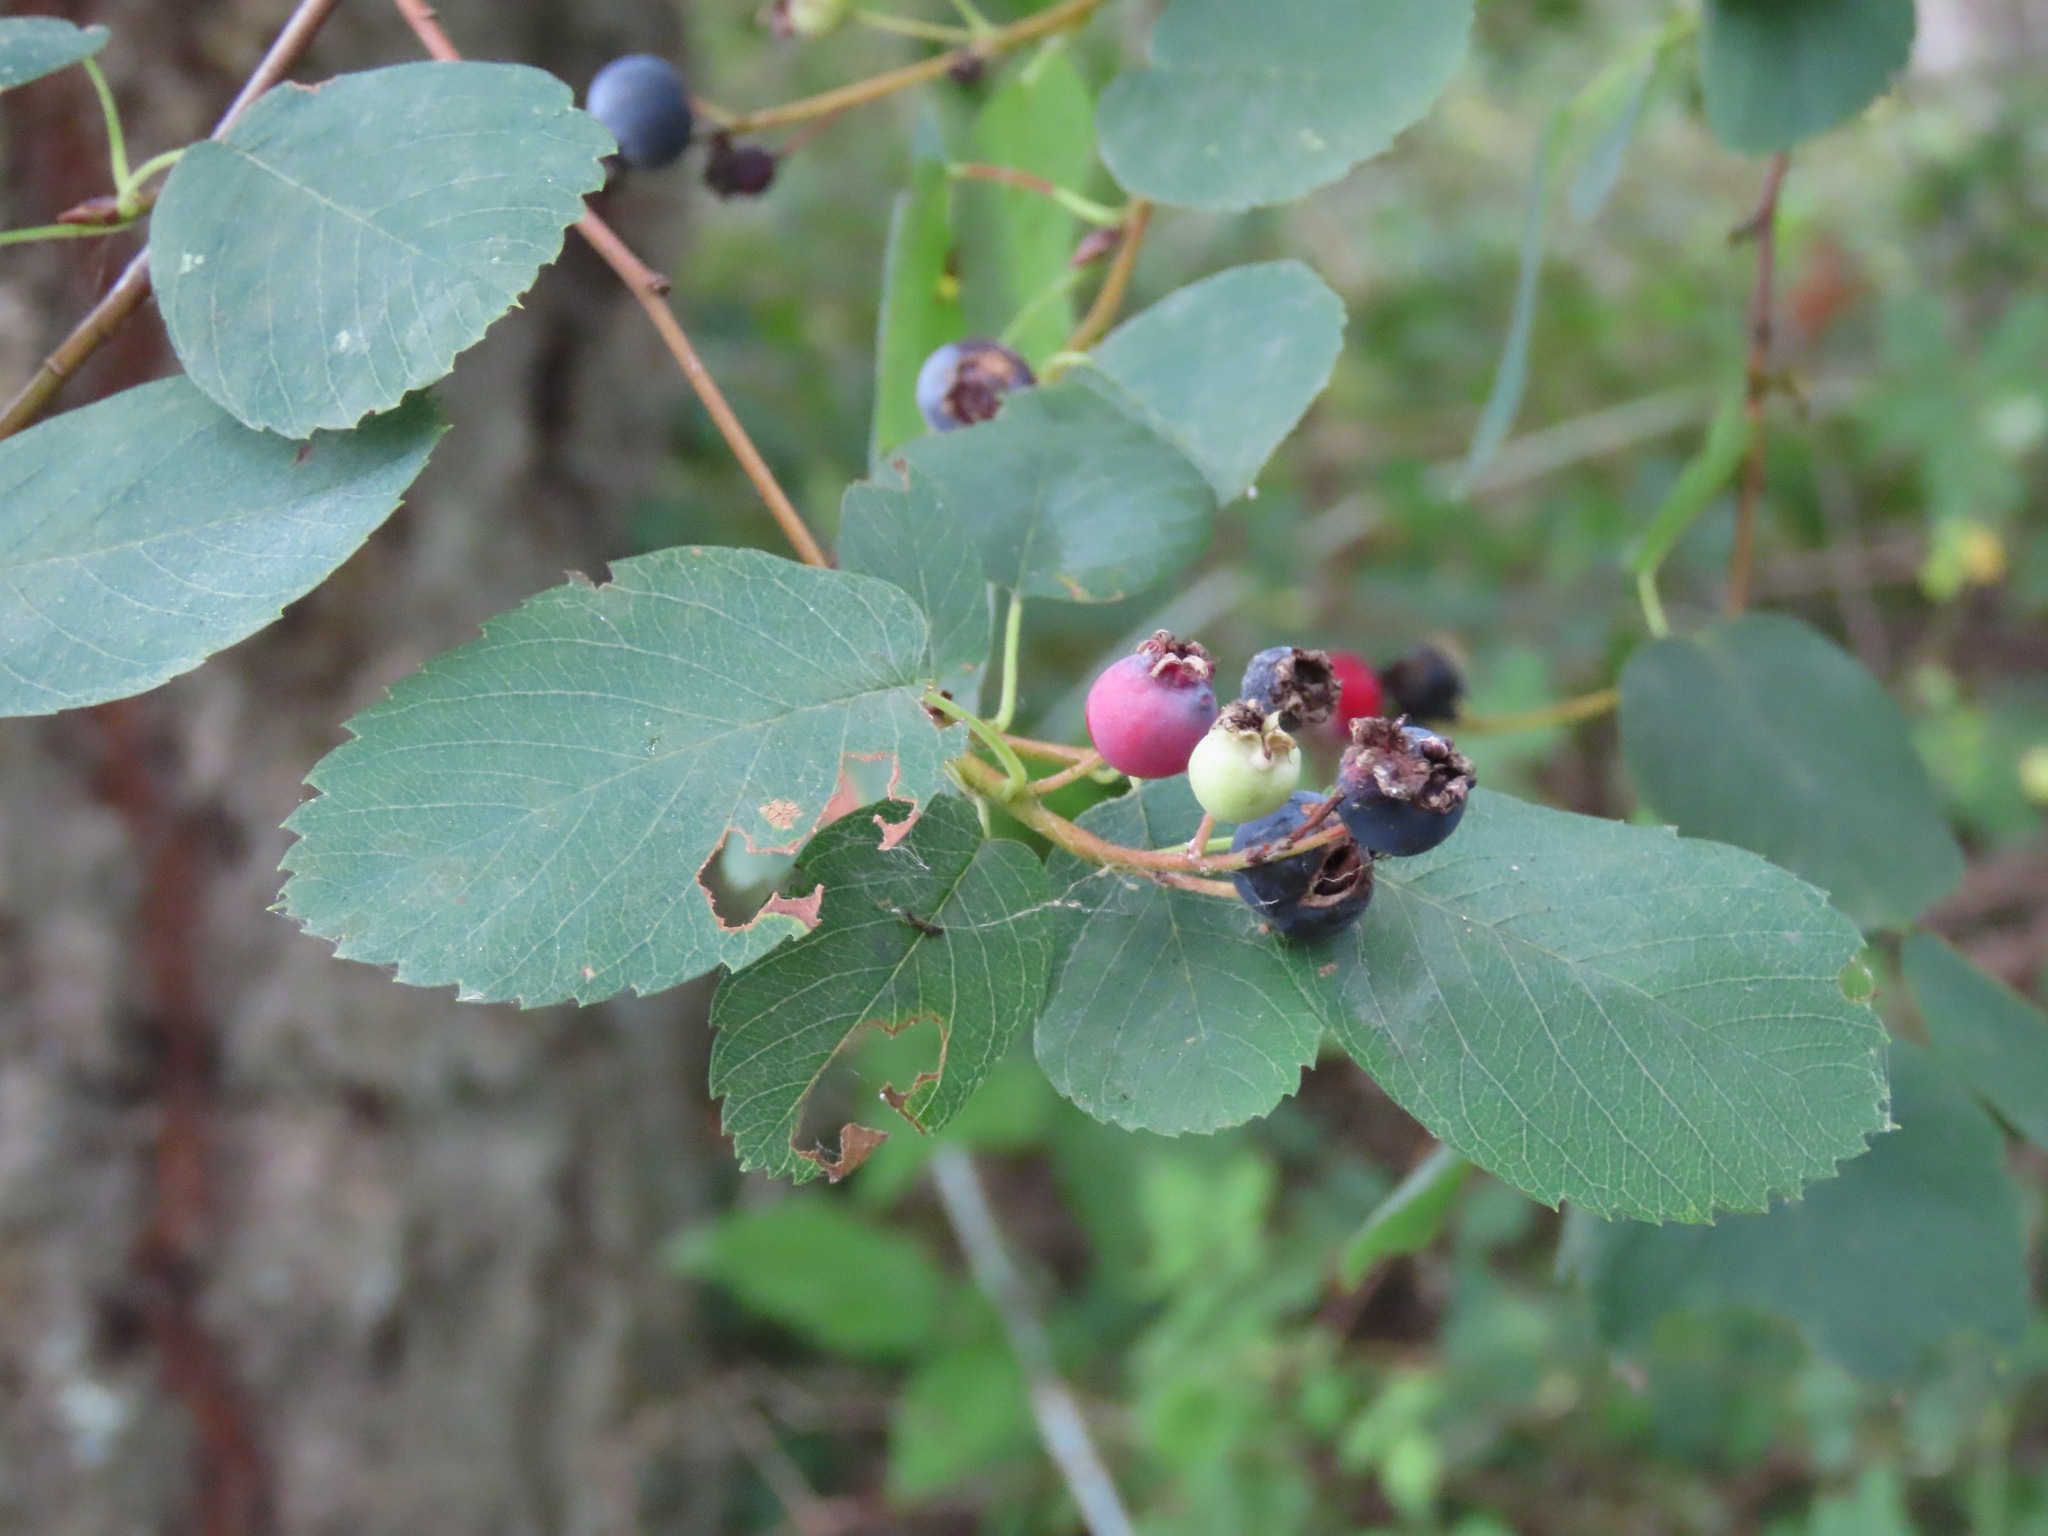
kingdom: Plantae
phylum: Tracheophyta
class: Magnoliopsida
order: Rosales
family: Rosaceae
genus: Amelanchier
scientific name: Amelanchier alnifolia
